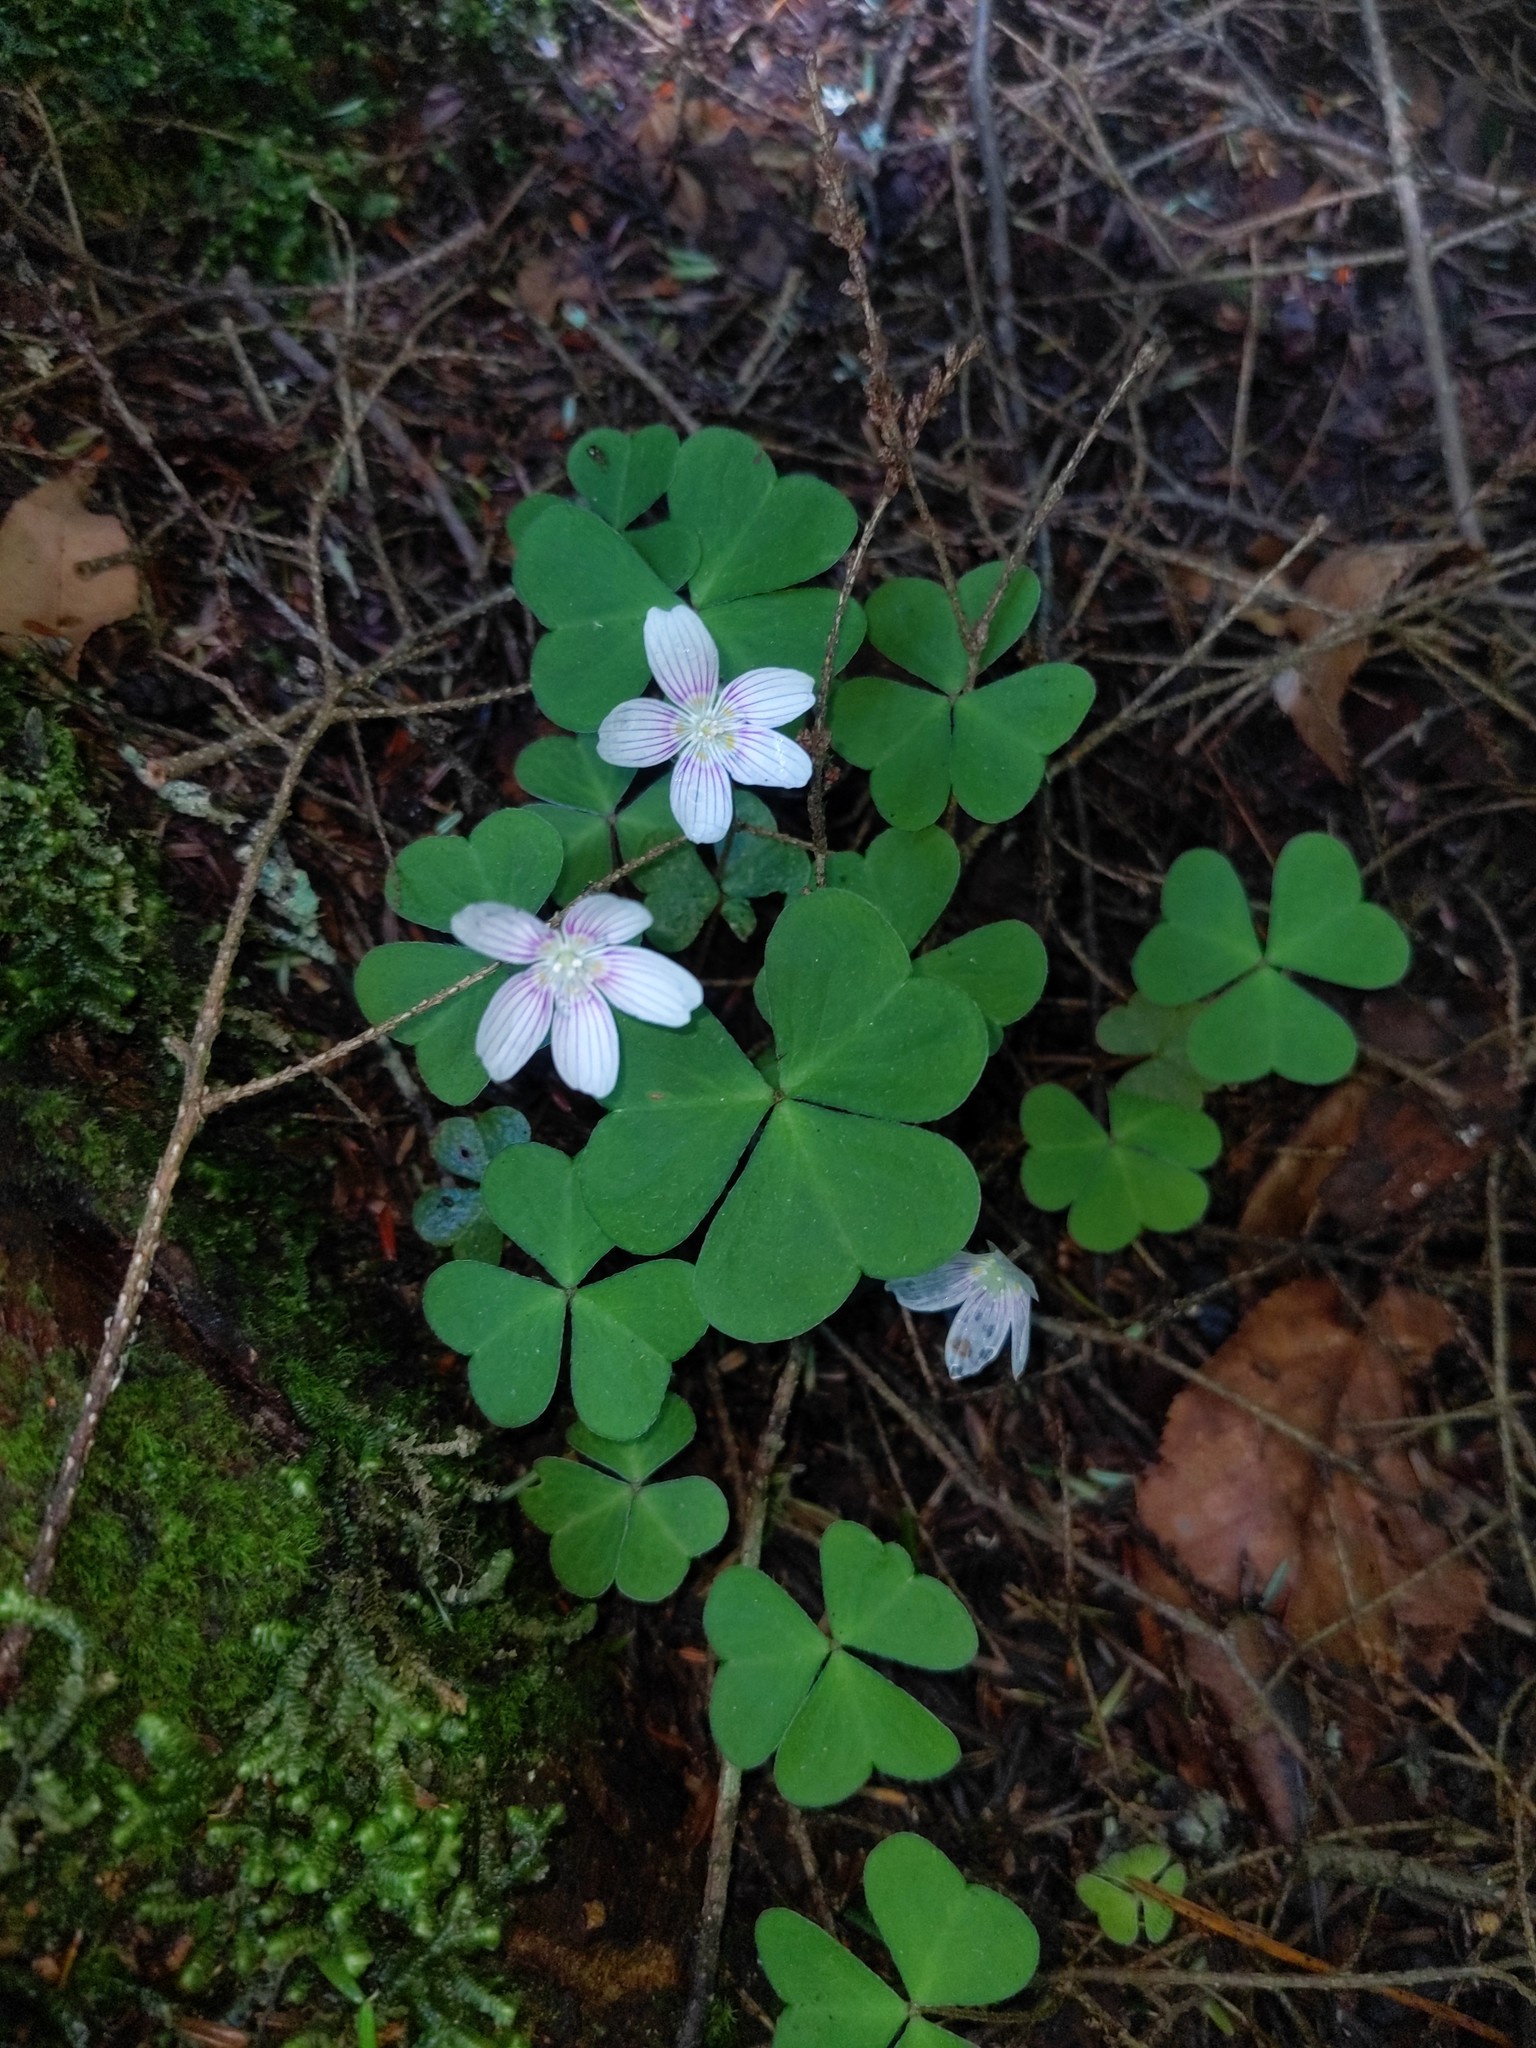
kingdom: Plantae
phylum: Tracheophyta
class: Magnoliopsida
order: Oxalidales
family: Oxalidaceae
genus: Oxalis
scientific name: Oxalis montana
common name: American wood-sorrel
